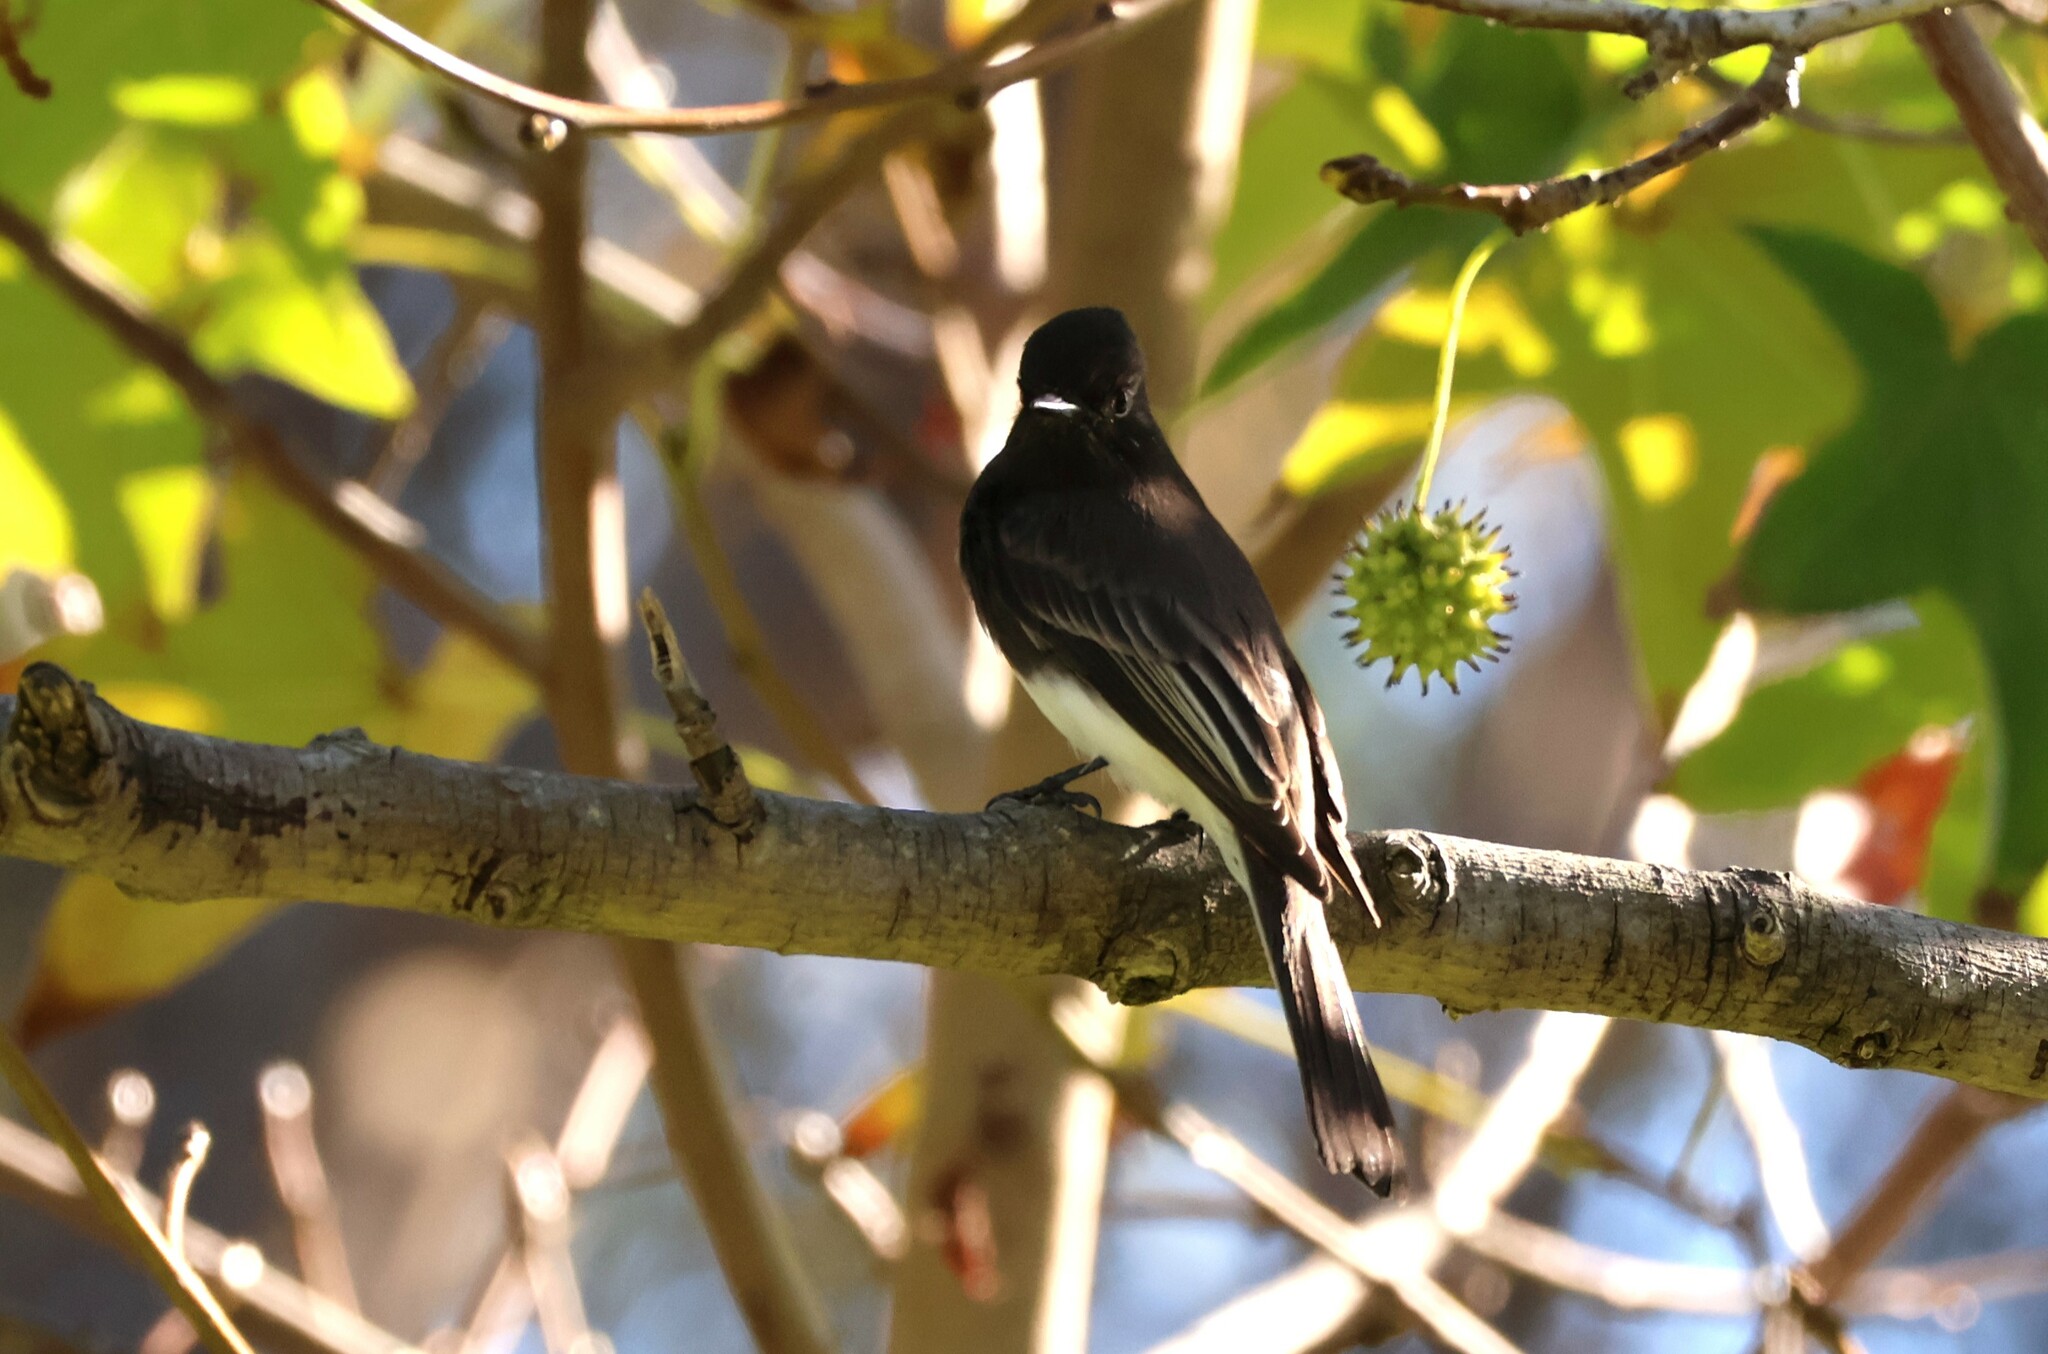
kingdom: Animalia
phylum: Chordata
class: Aves
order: Passeriformes
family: Tyrannidae
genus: Sayornis
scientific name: Sayornis nigricans
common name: Black phoebe
